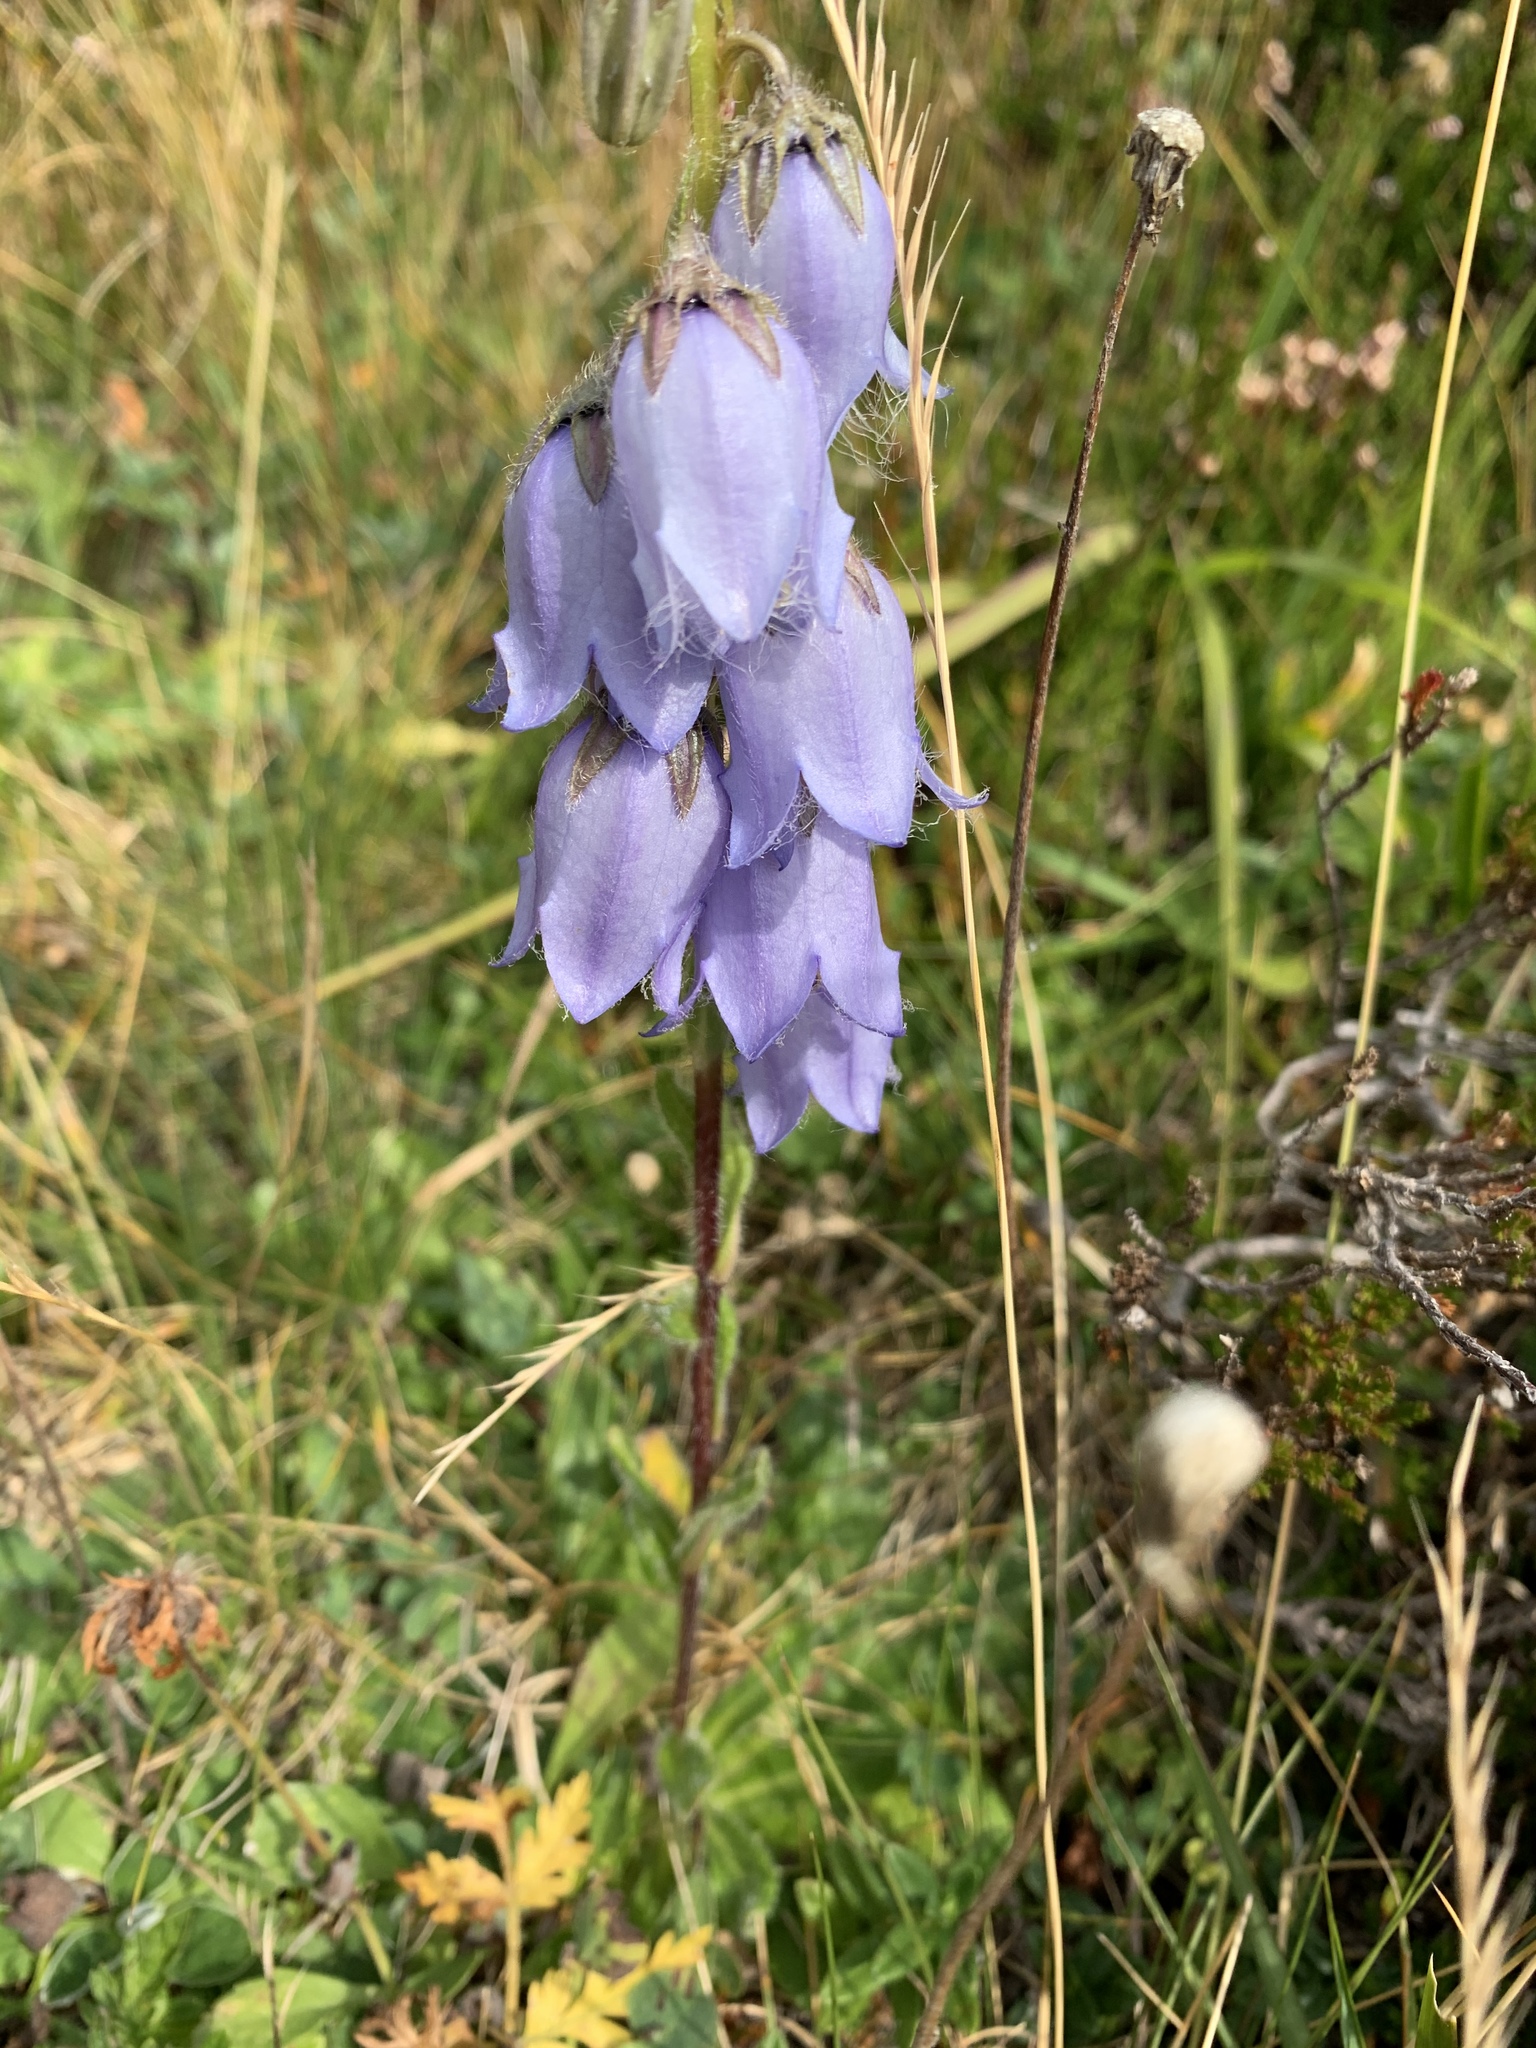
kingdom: Plantae
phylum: Tracheophyta
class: Magnoliopsida
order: Asterales
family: Campanulaceae
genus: Campanula
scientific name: Campanula barbata
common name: Bearded bellflower
